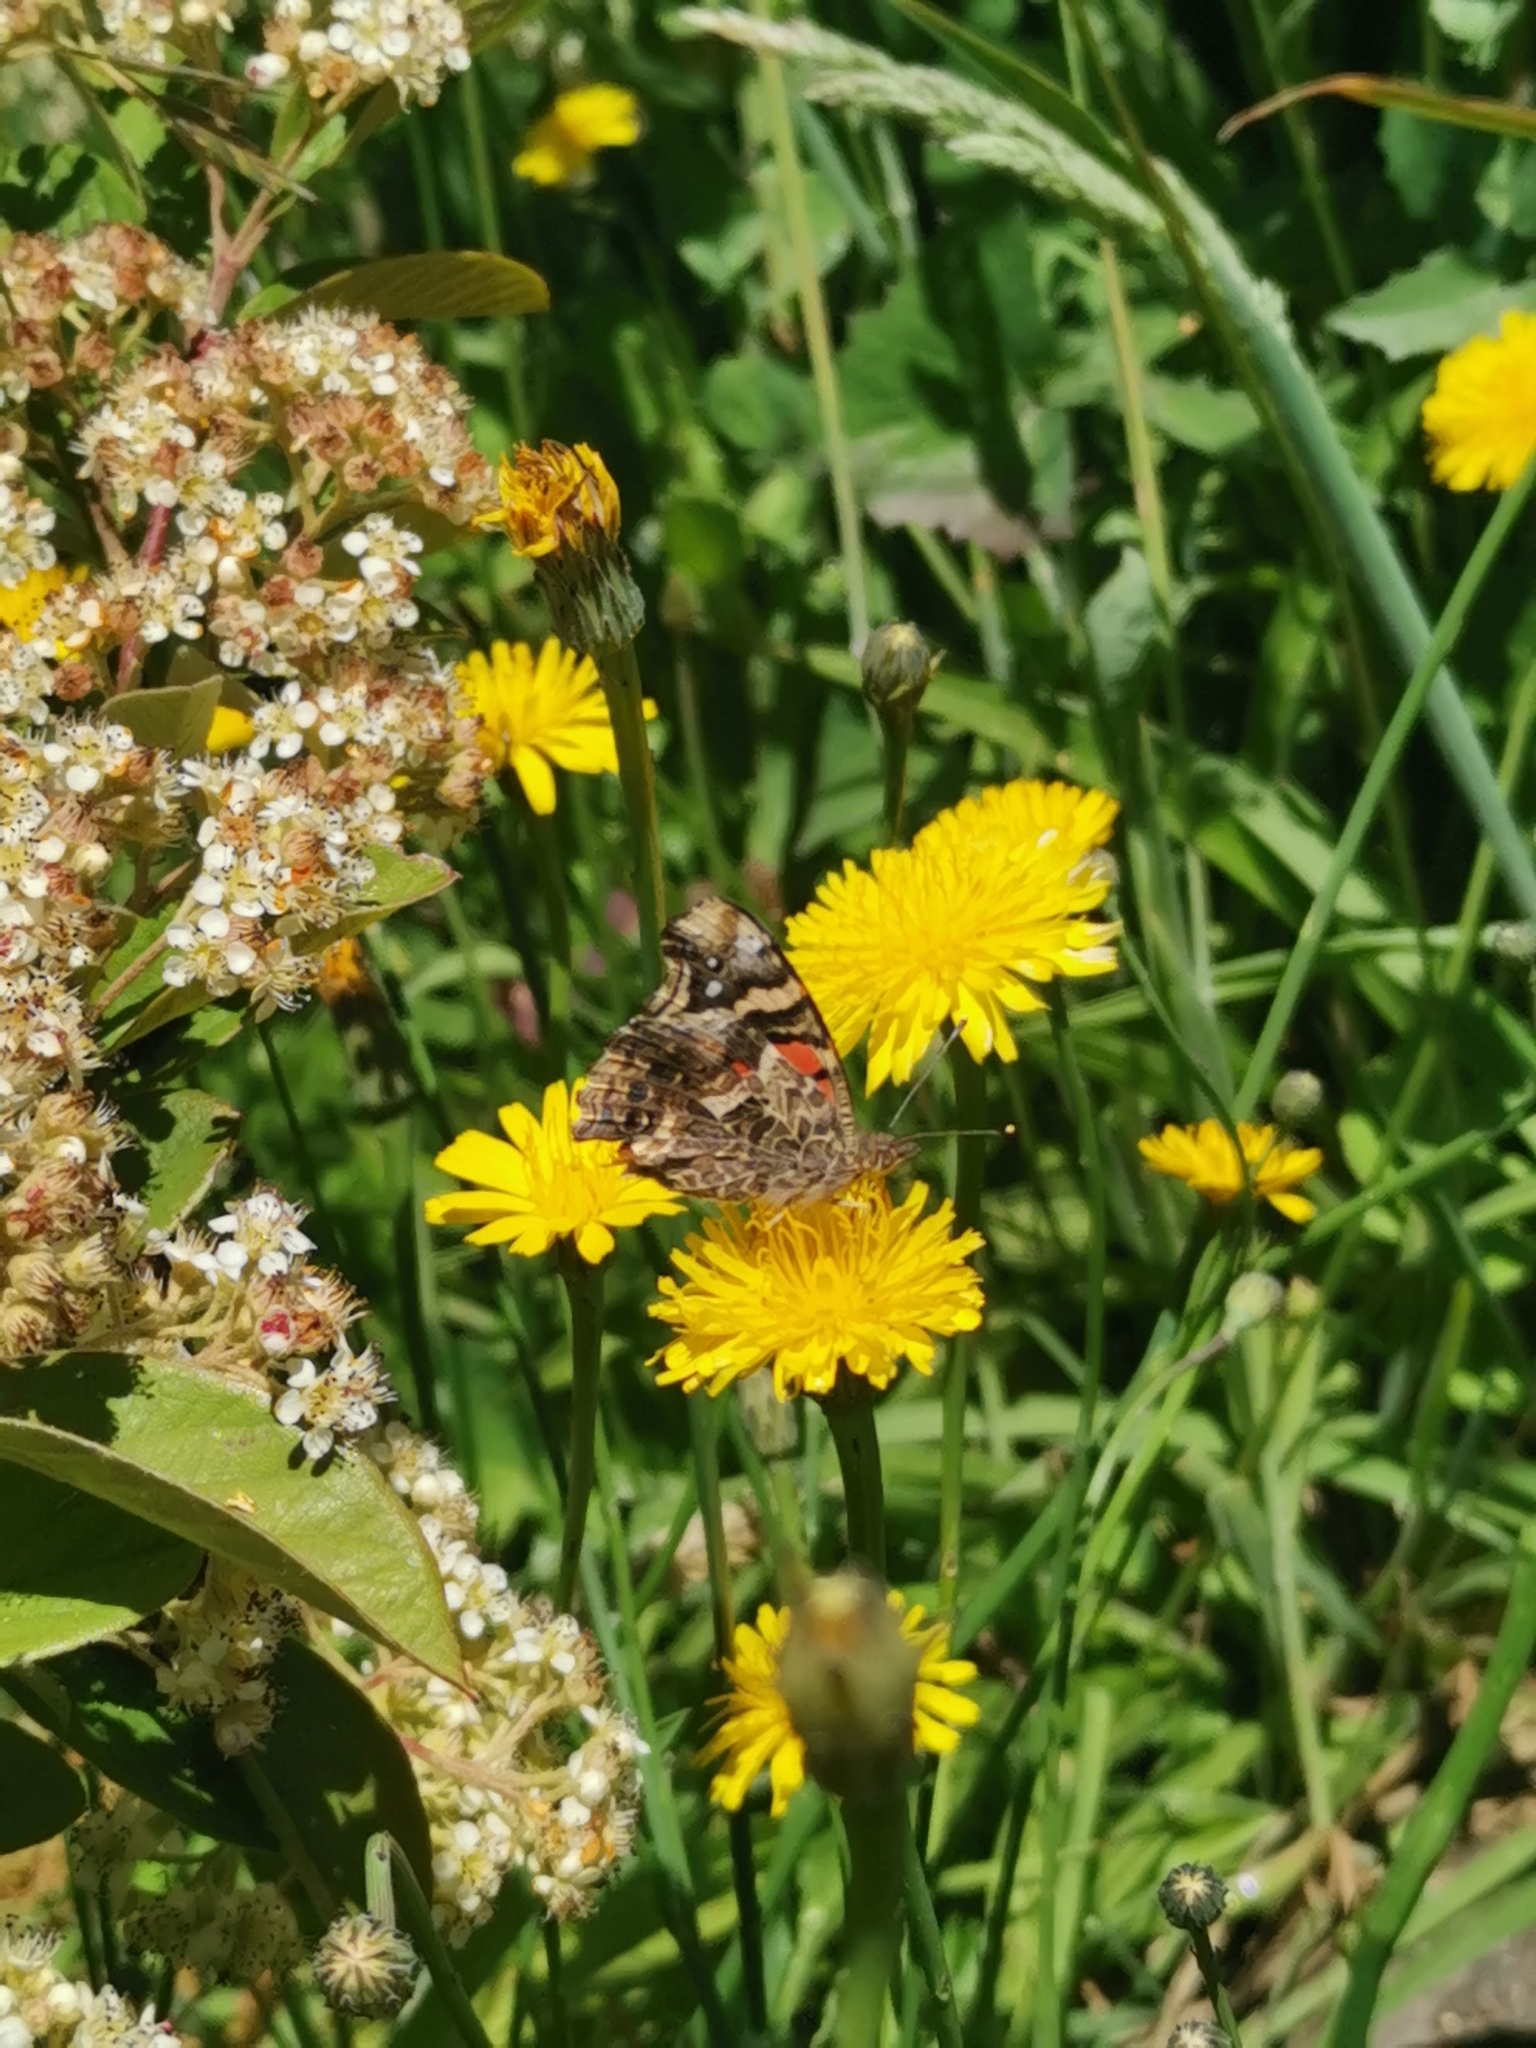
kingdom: Animalia
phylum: Arthropoda
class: Insecta
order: Lepidoptera
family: Nymphalidae
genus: Vanessa
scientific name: Vanessa carye
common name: Subtropical lady
